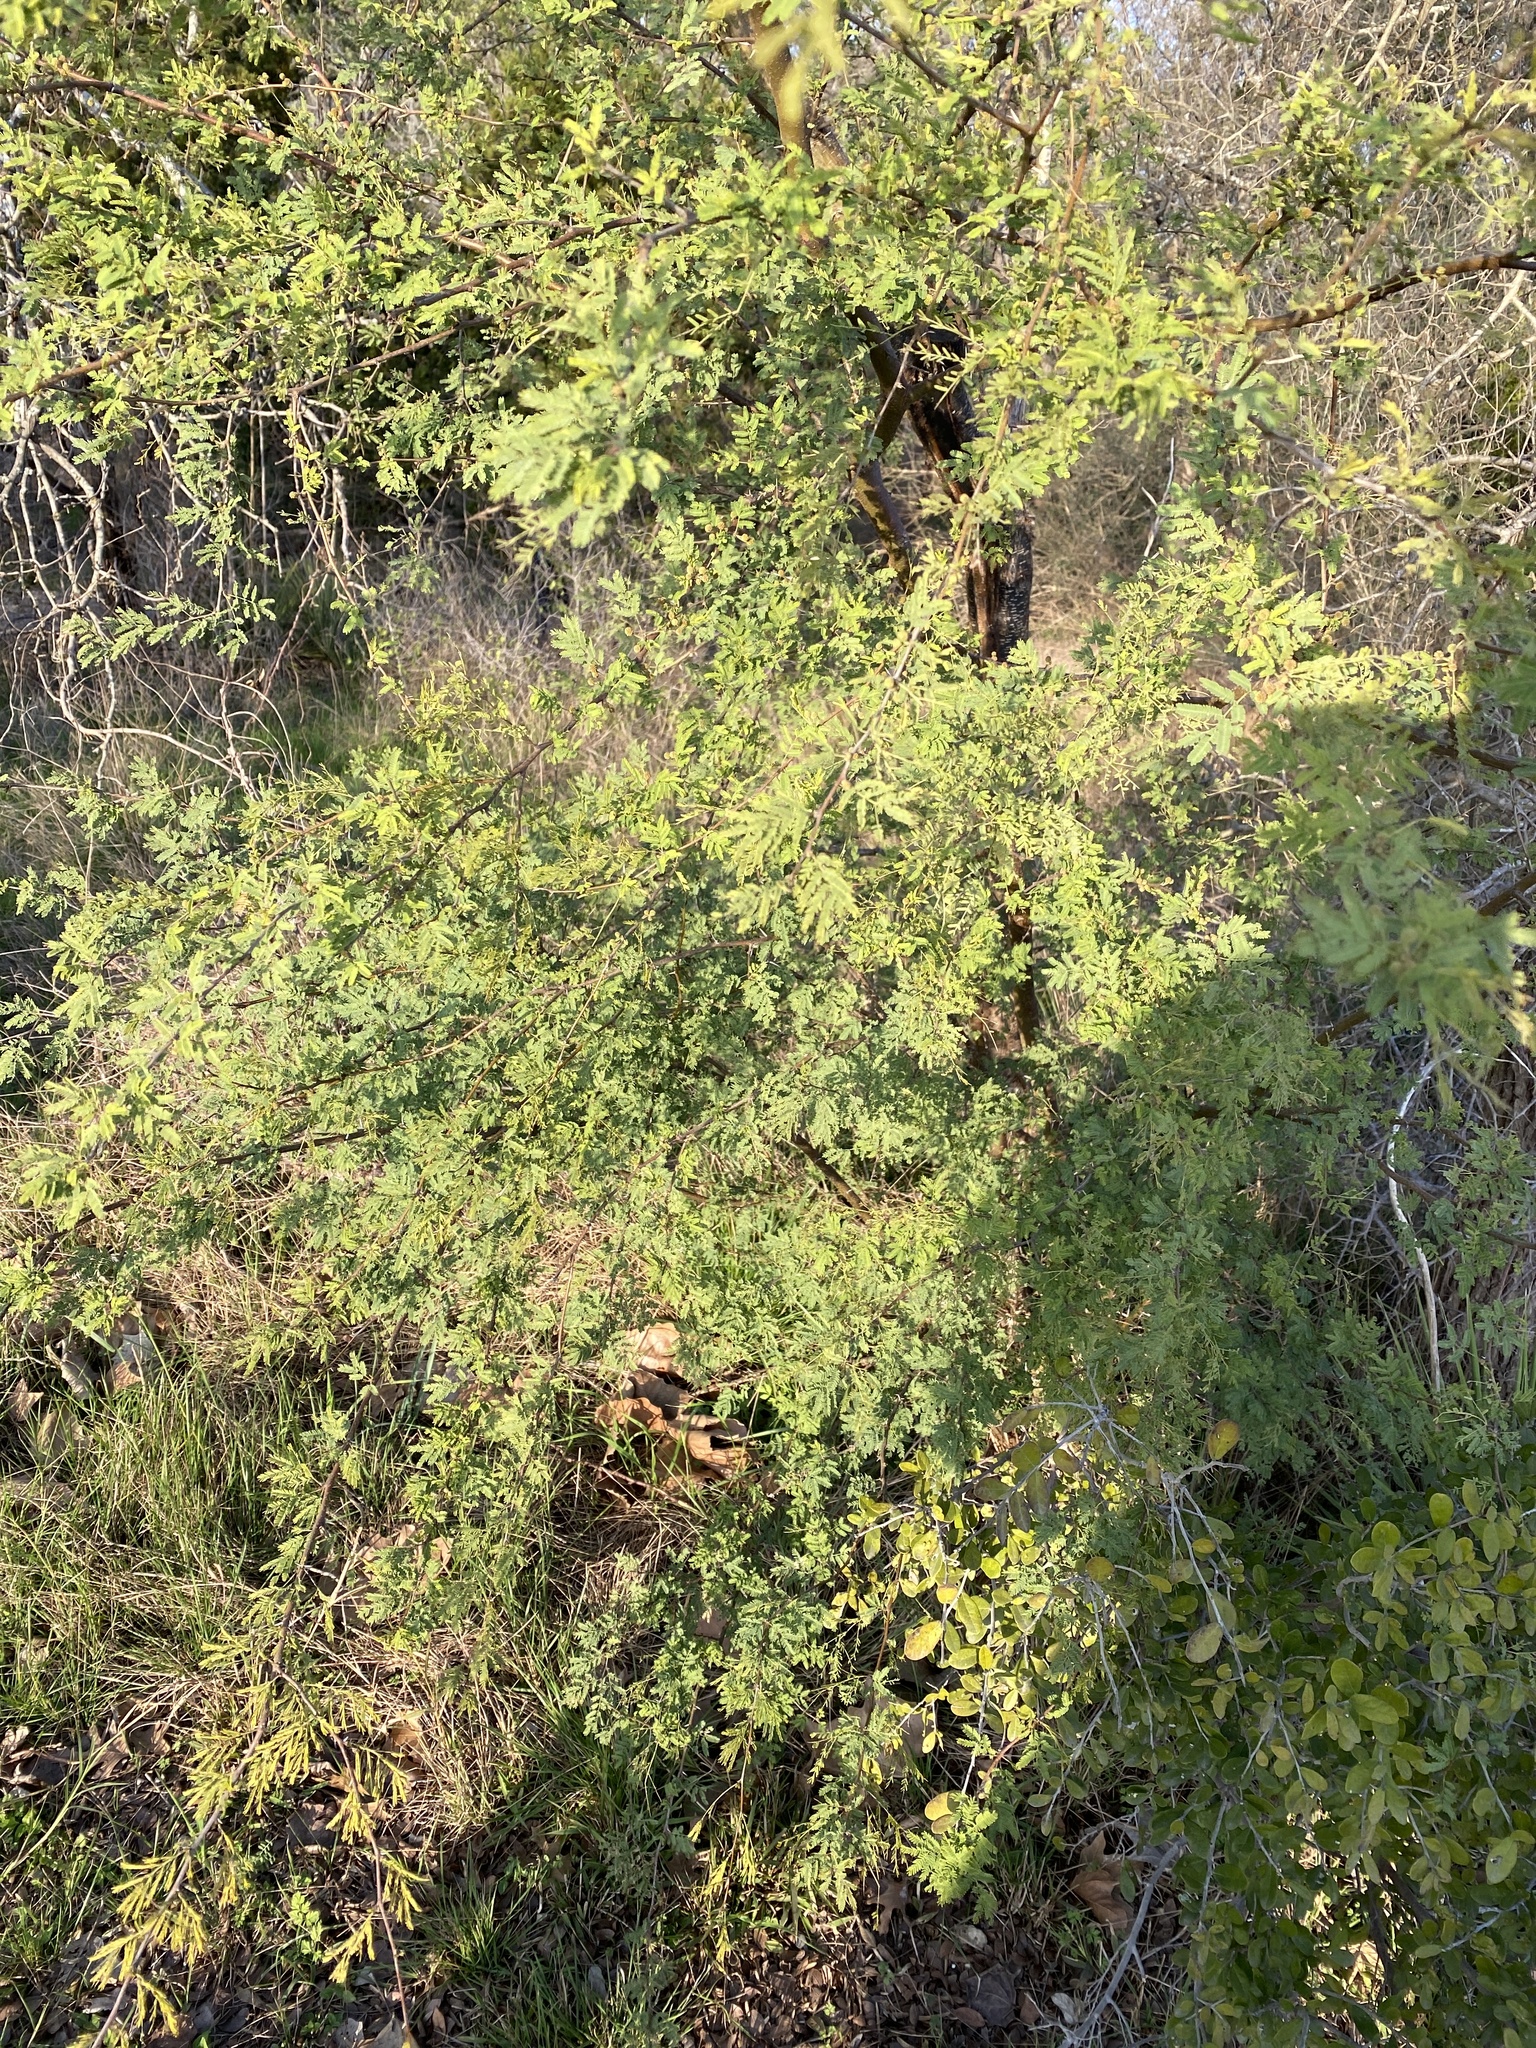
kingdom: Plantae
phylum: Tracheophyta
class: Magnoliopsida
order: Fabales
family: Fabaceae
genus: Vachellia
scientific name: Vachellia farnesiana
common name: Sweet acacia
